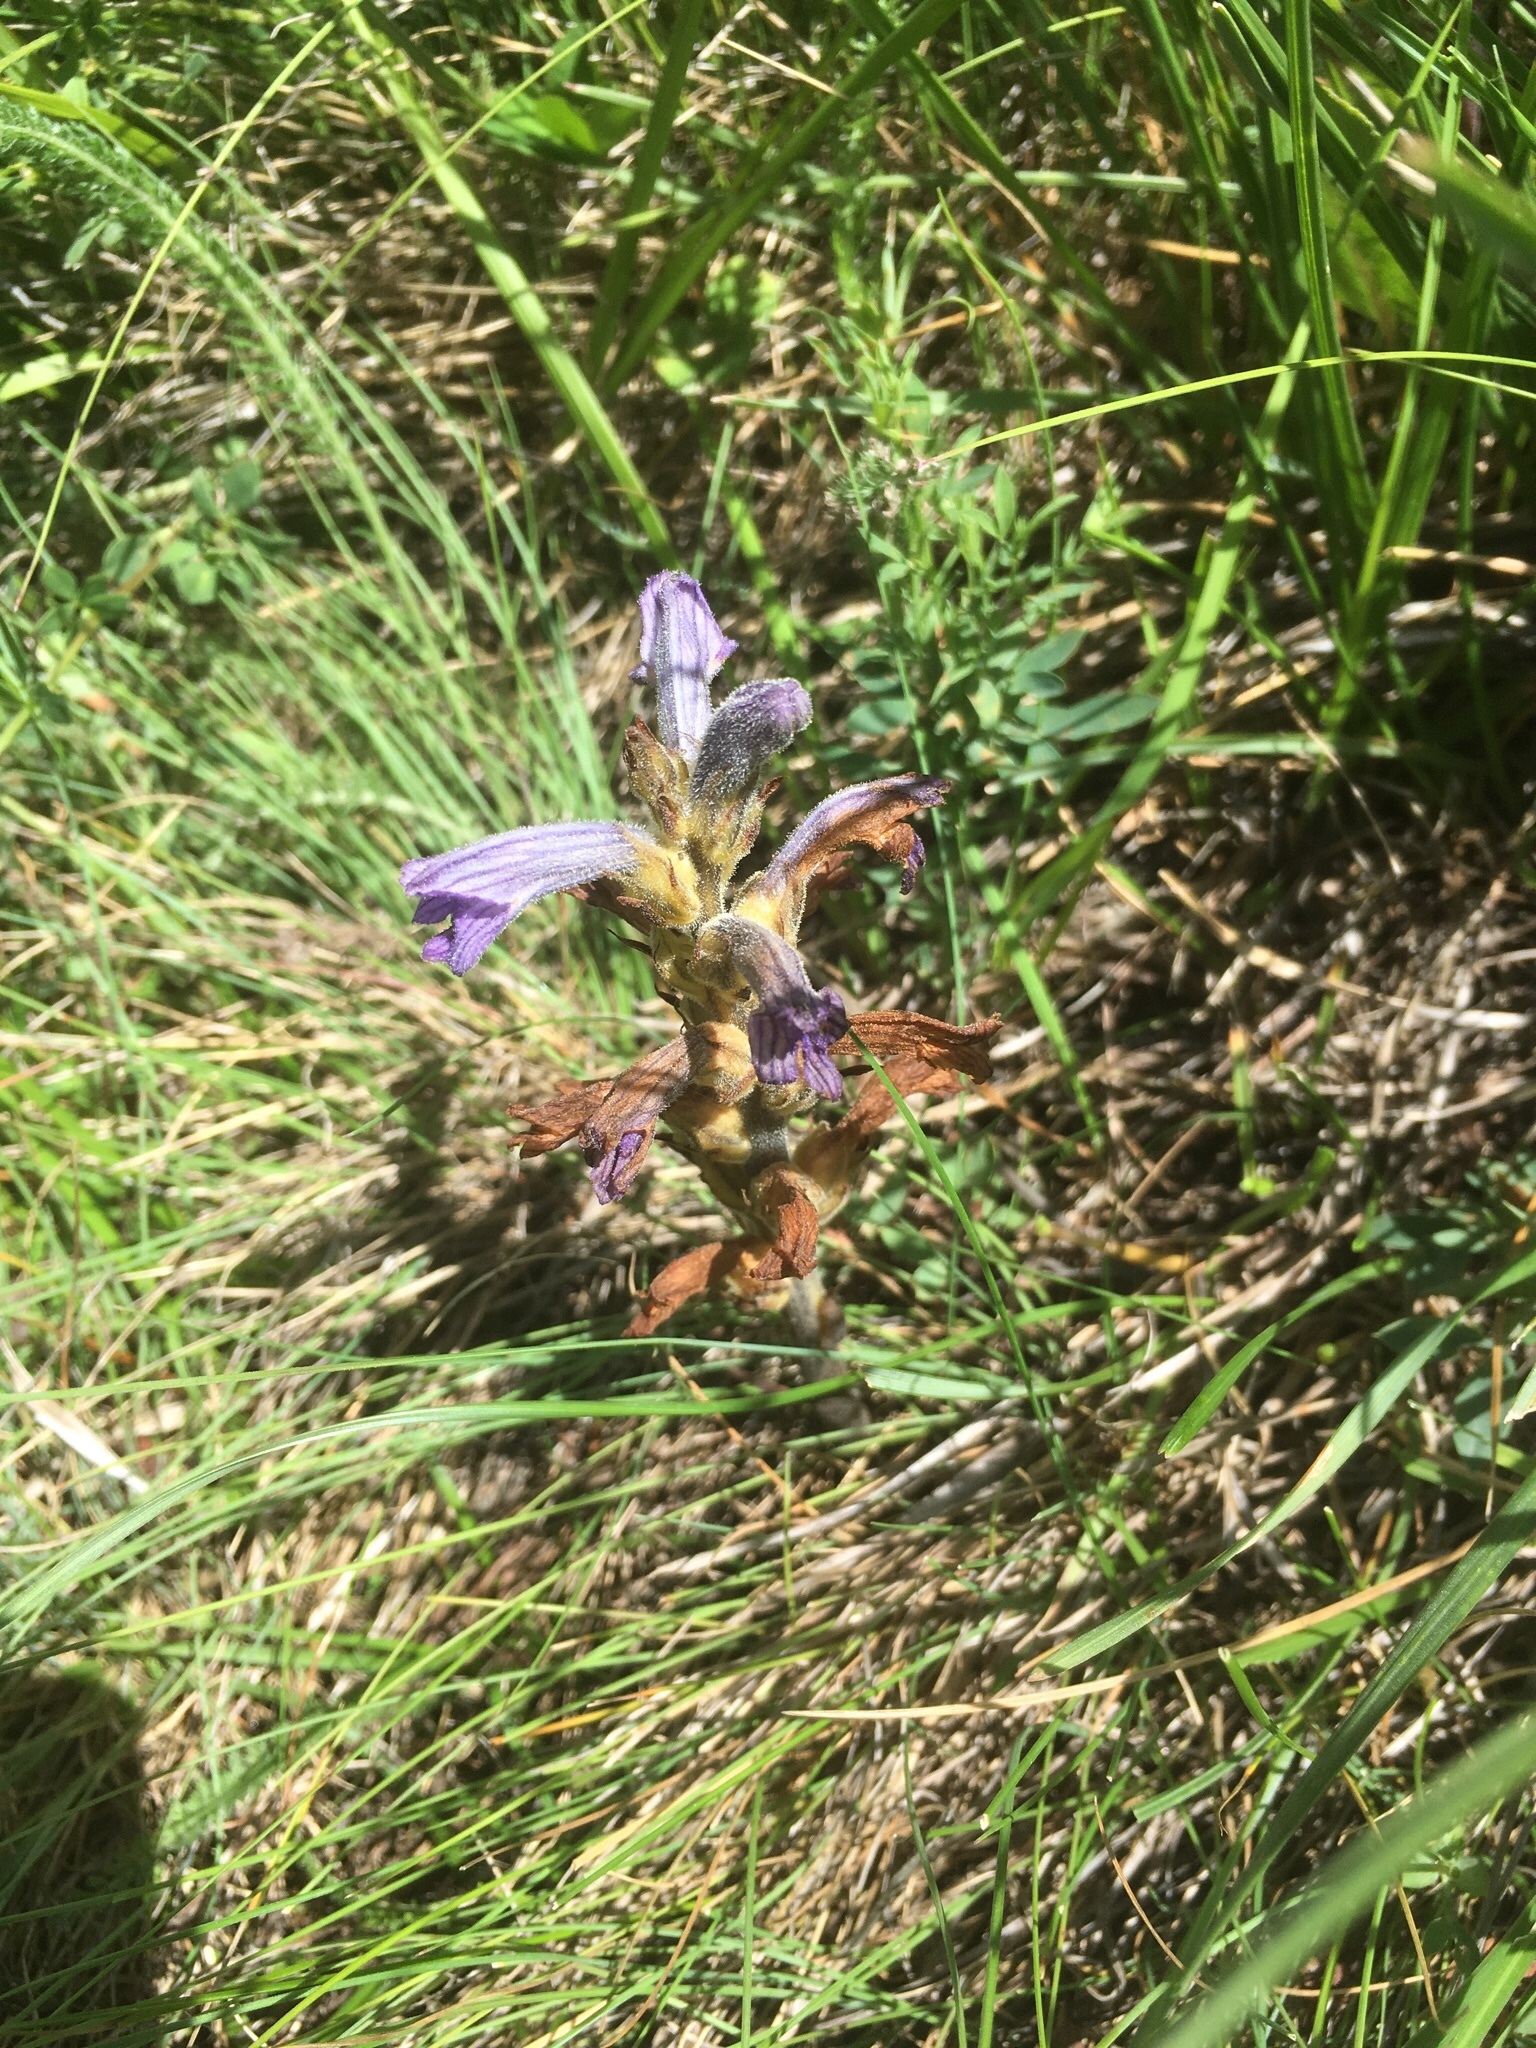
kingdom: Plantae
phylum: Tracheophyta
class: Magnoliopsida
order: Lamiales
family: Orobanchaceae
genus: Phelipanche
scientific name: Phelipanche purpurea
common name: Purple broomrape
